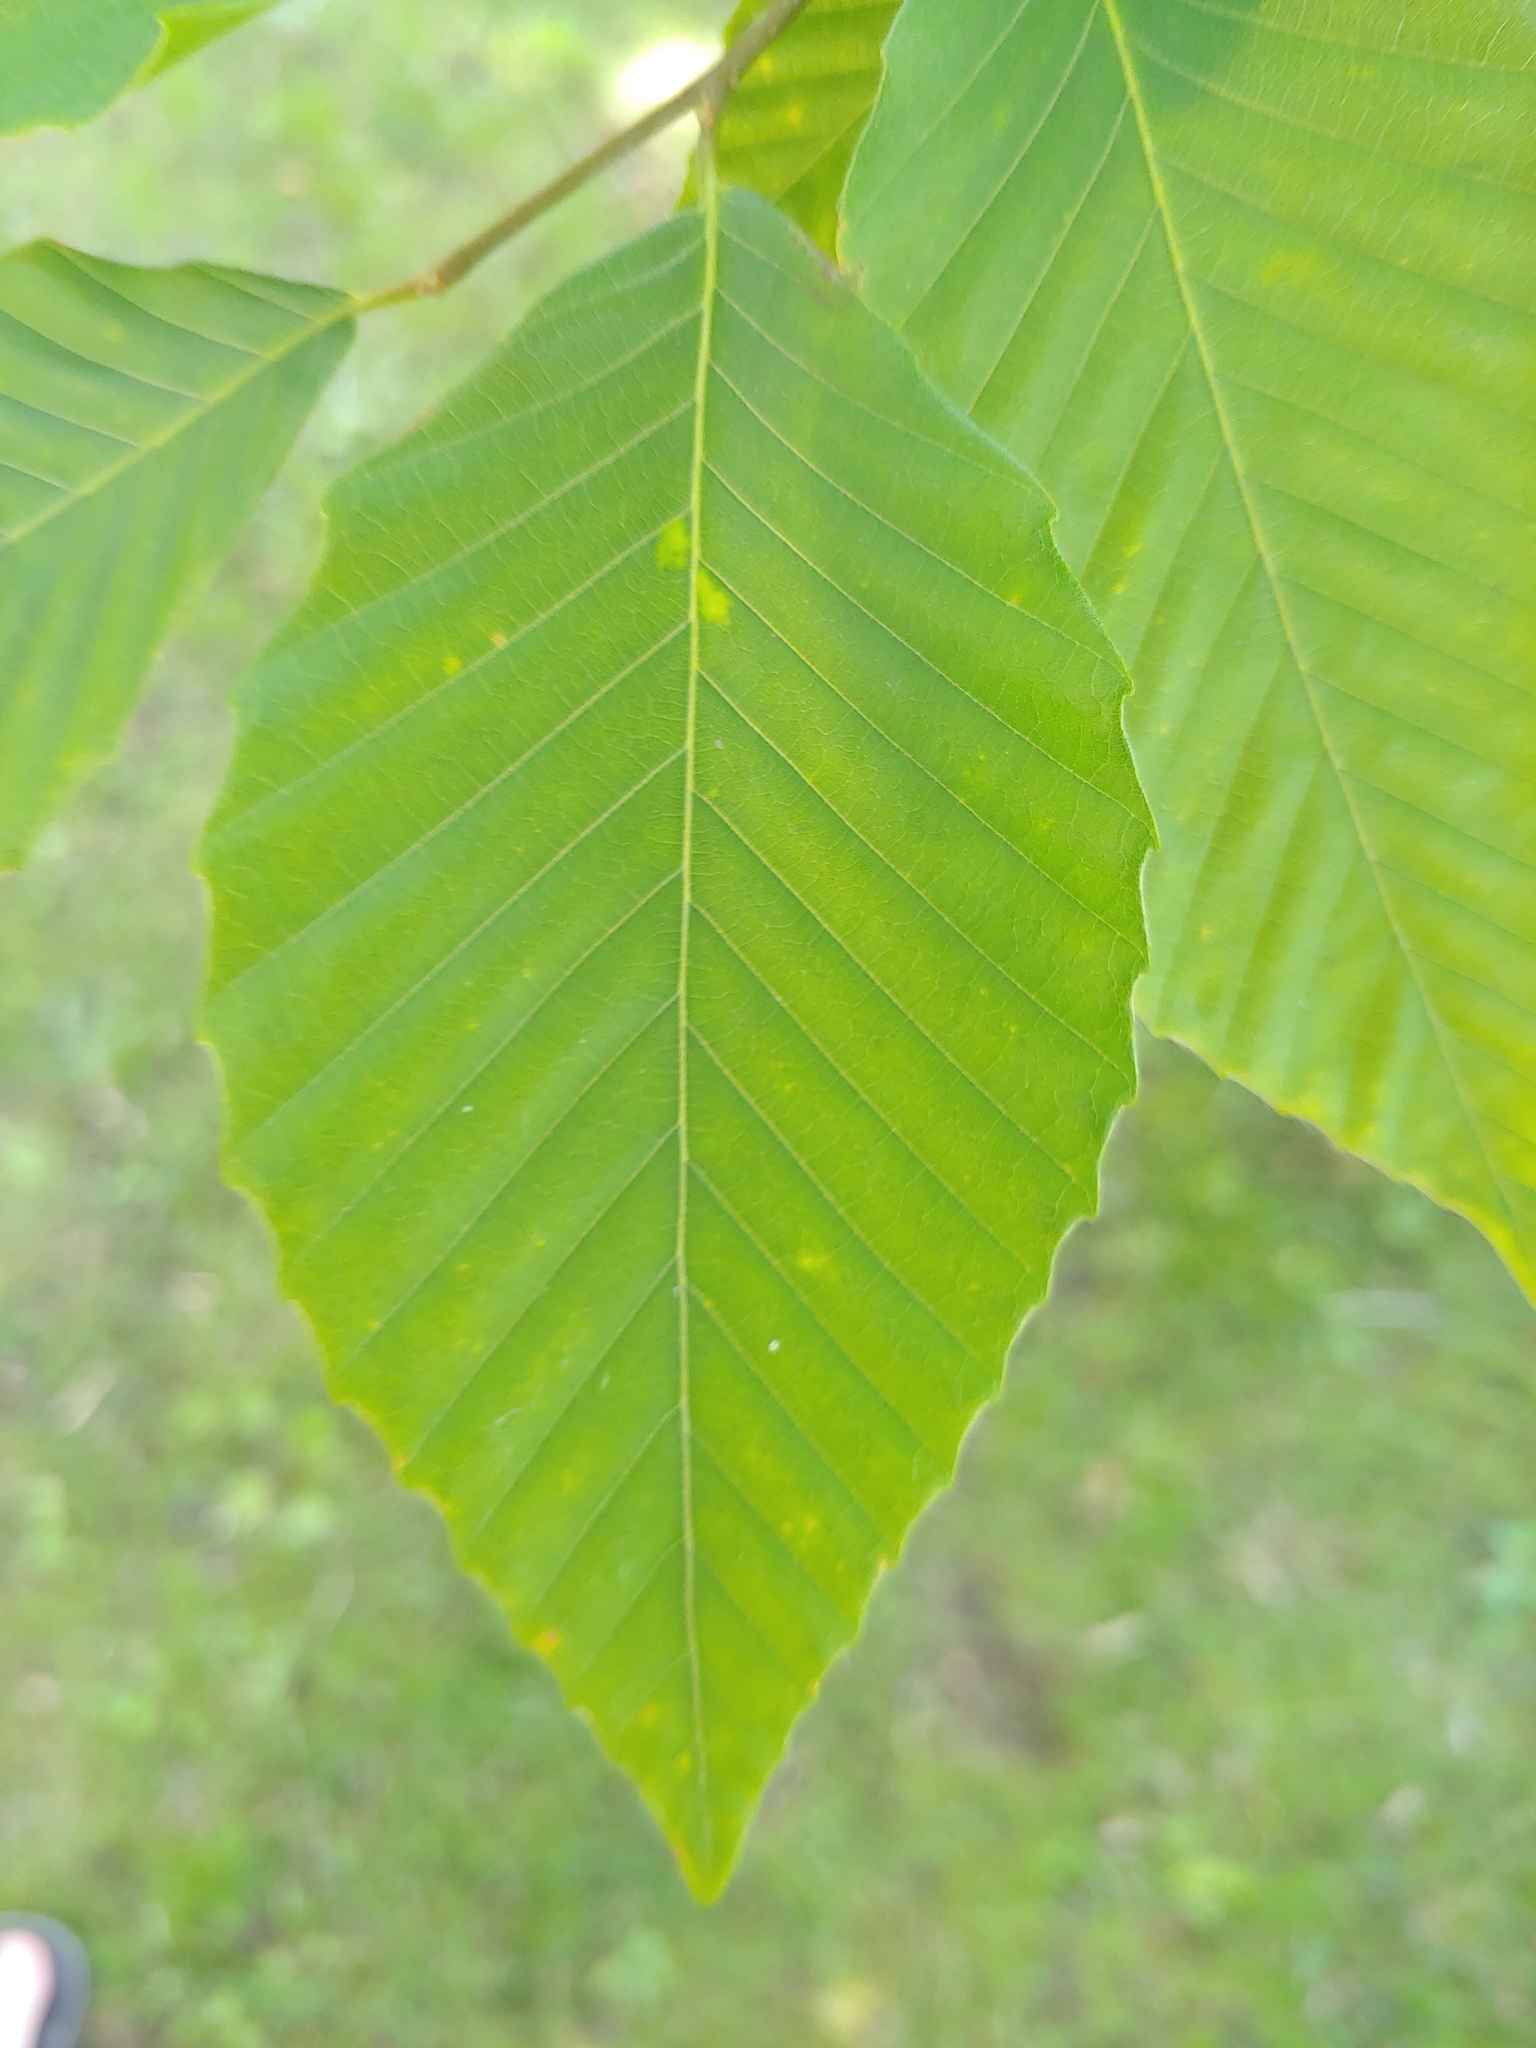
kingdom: Plantae
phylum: Tracheophyta
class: Magnoliopsida
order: Fagales
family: Fagaceae
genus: Fagus
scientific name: Fagus grandifolia
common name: American beech
